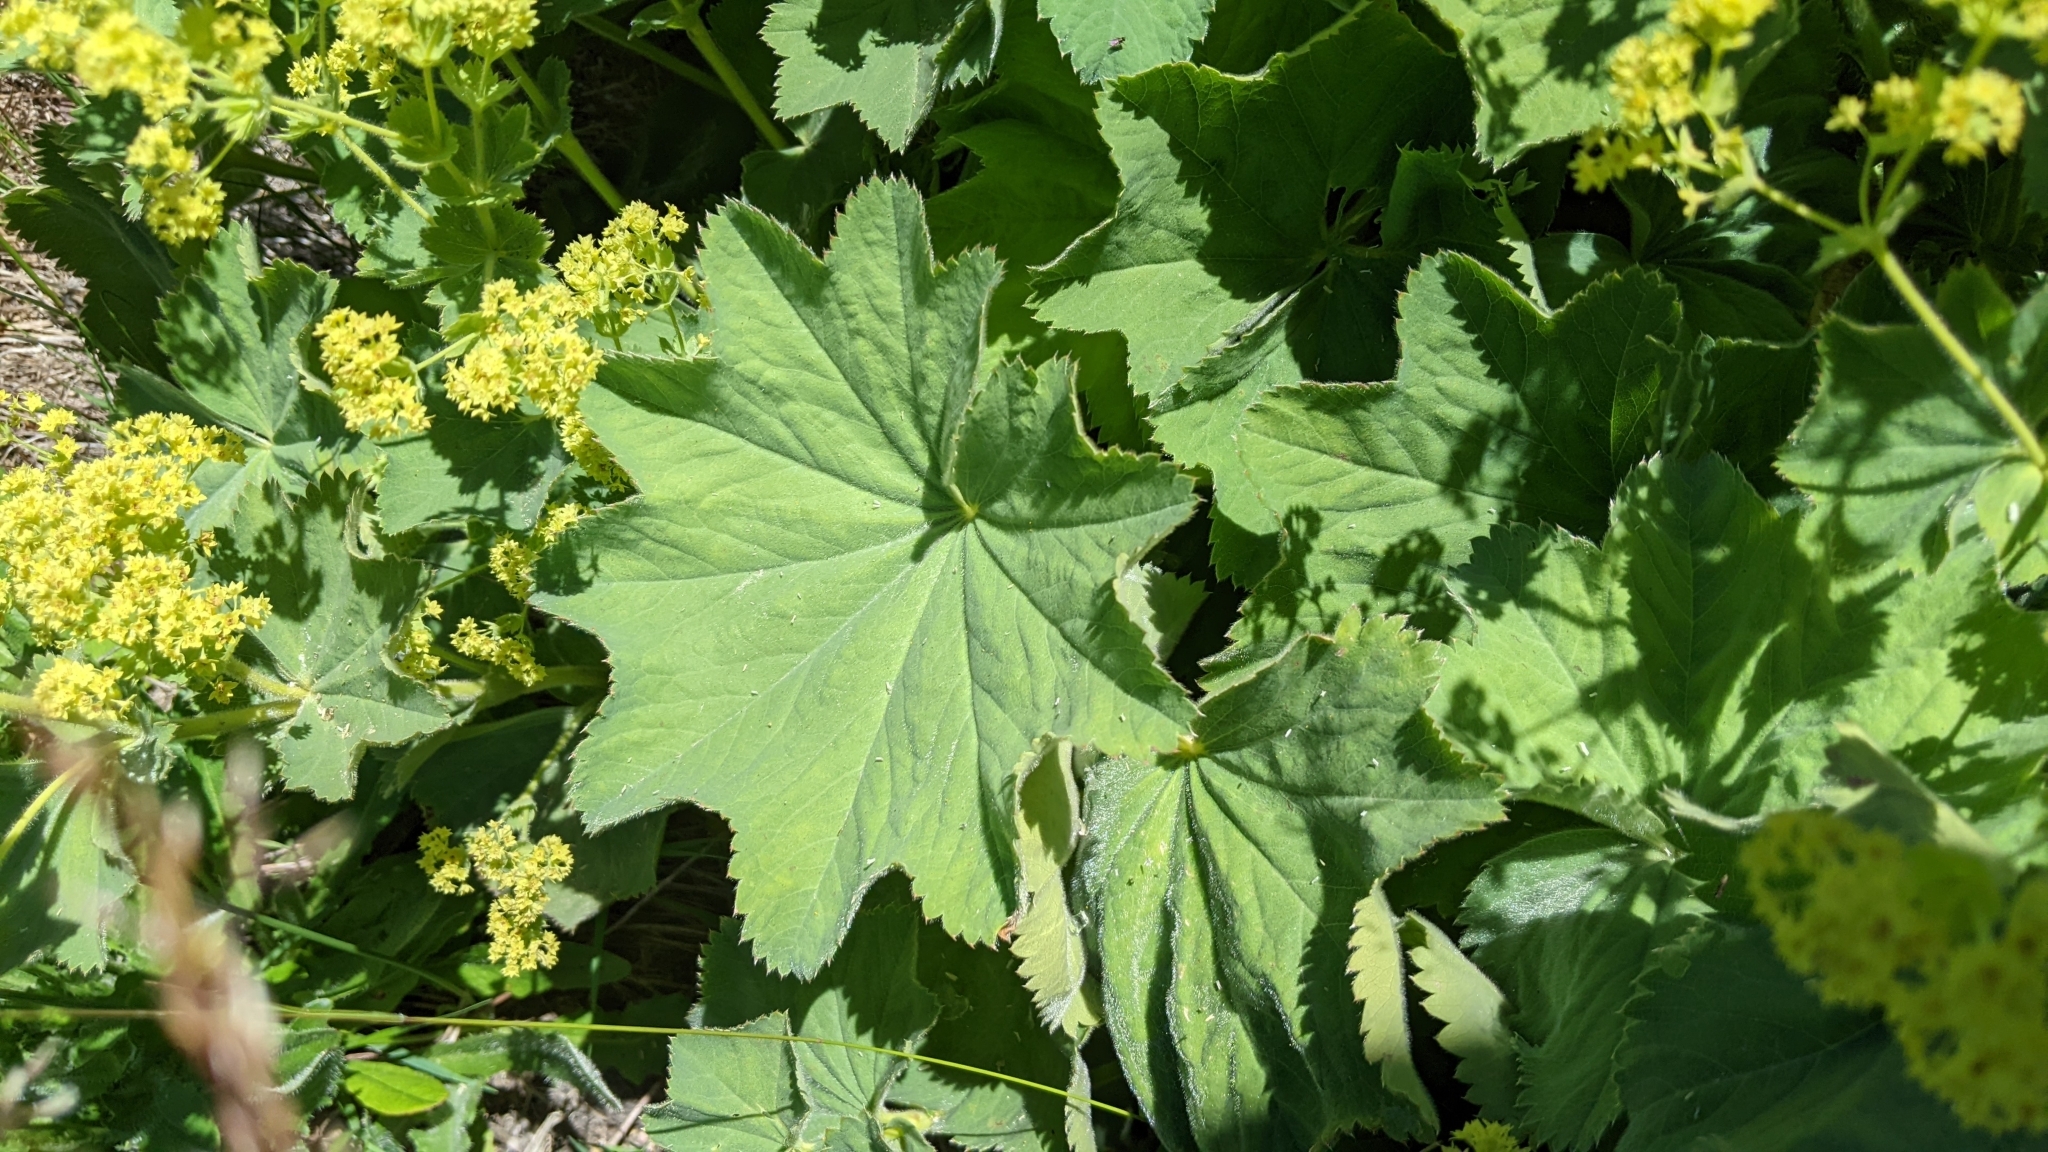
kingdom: Plantae
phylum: Tracheophyta
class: Magnoliopsida
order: Rosales
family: Rosaceae
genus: Alchemilla
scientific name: Alchemilla mollis
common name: Lady's-mantle
